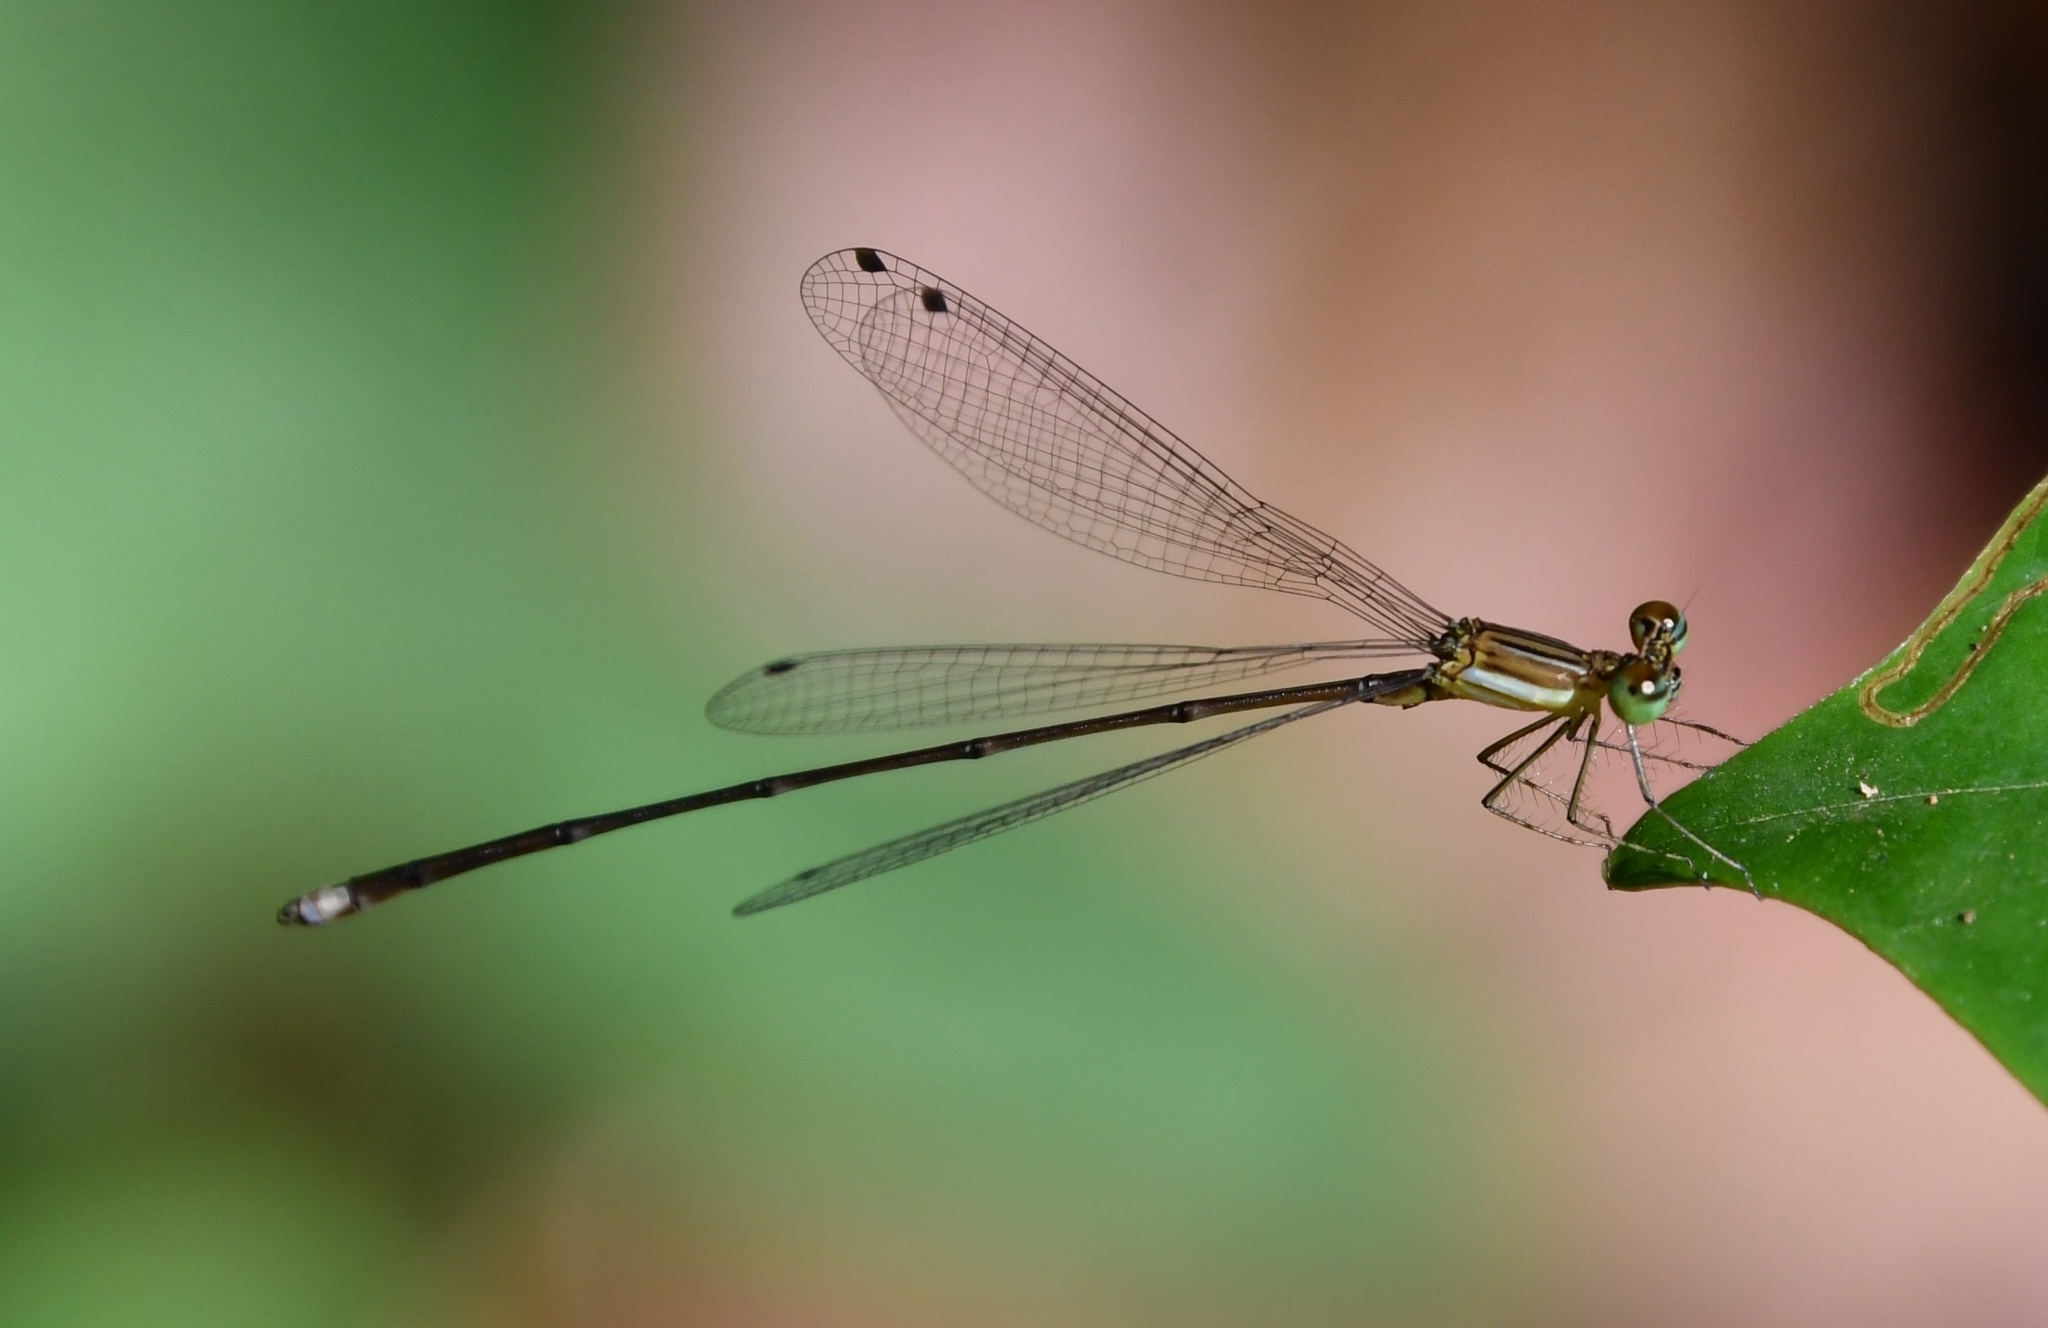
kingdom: Animalia
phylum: Arthropoda
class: Insecta
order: Odonata
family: Platycnemididae
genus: Coeliccia
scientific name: Coeliccia kazukoae
